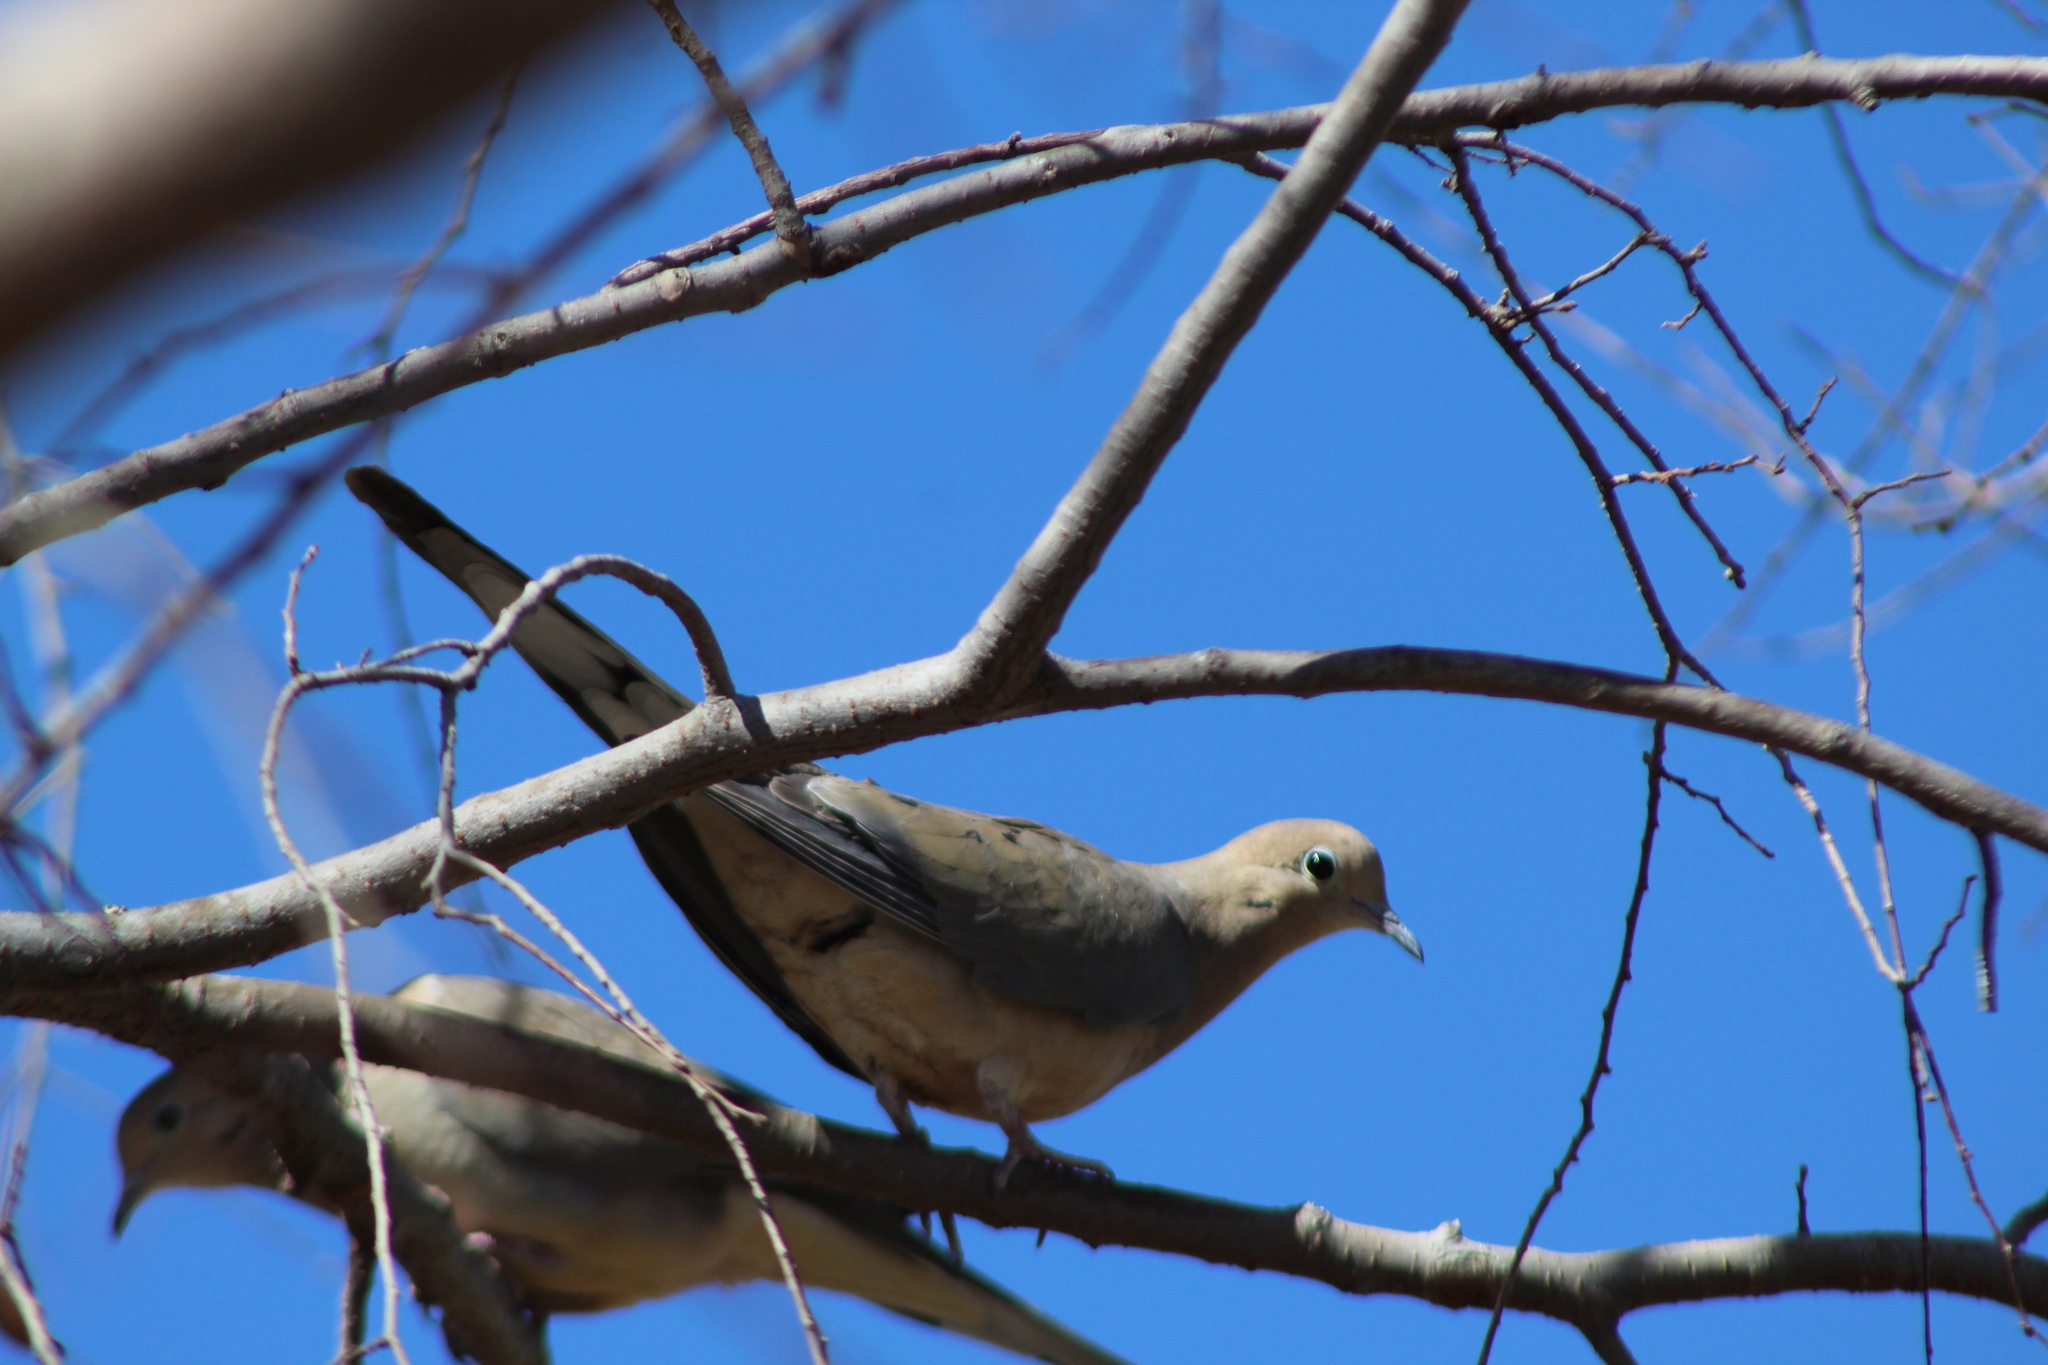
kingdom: Animalia
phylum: Chordata
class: Aves
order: Columbiformes
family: Columbidae
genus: Zenaida
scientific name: Zenaida macroura
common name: Mourning dove
